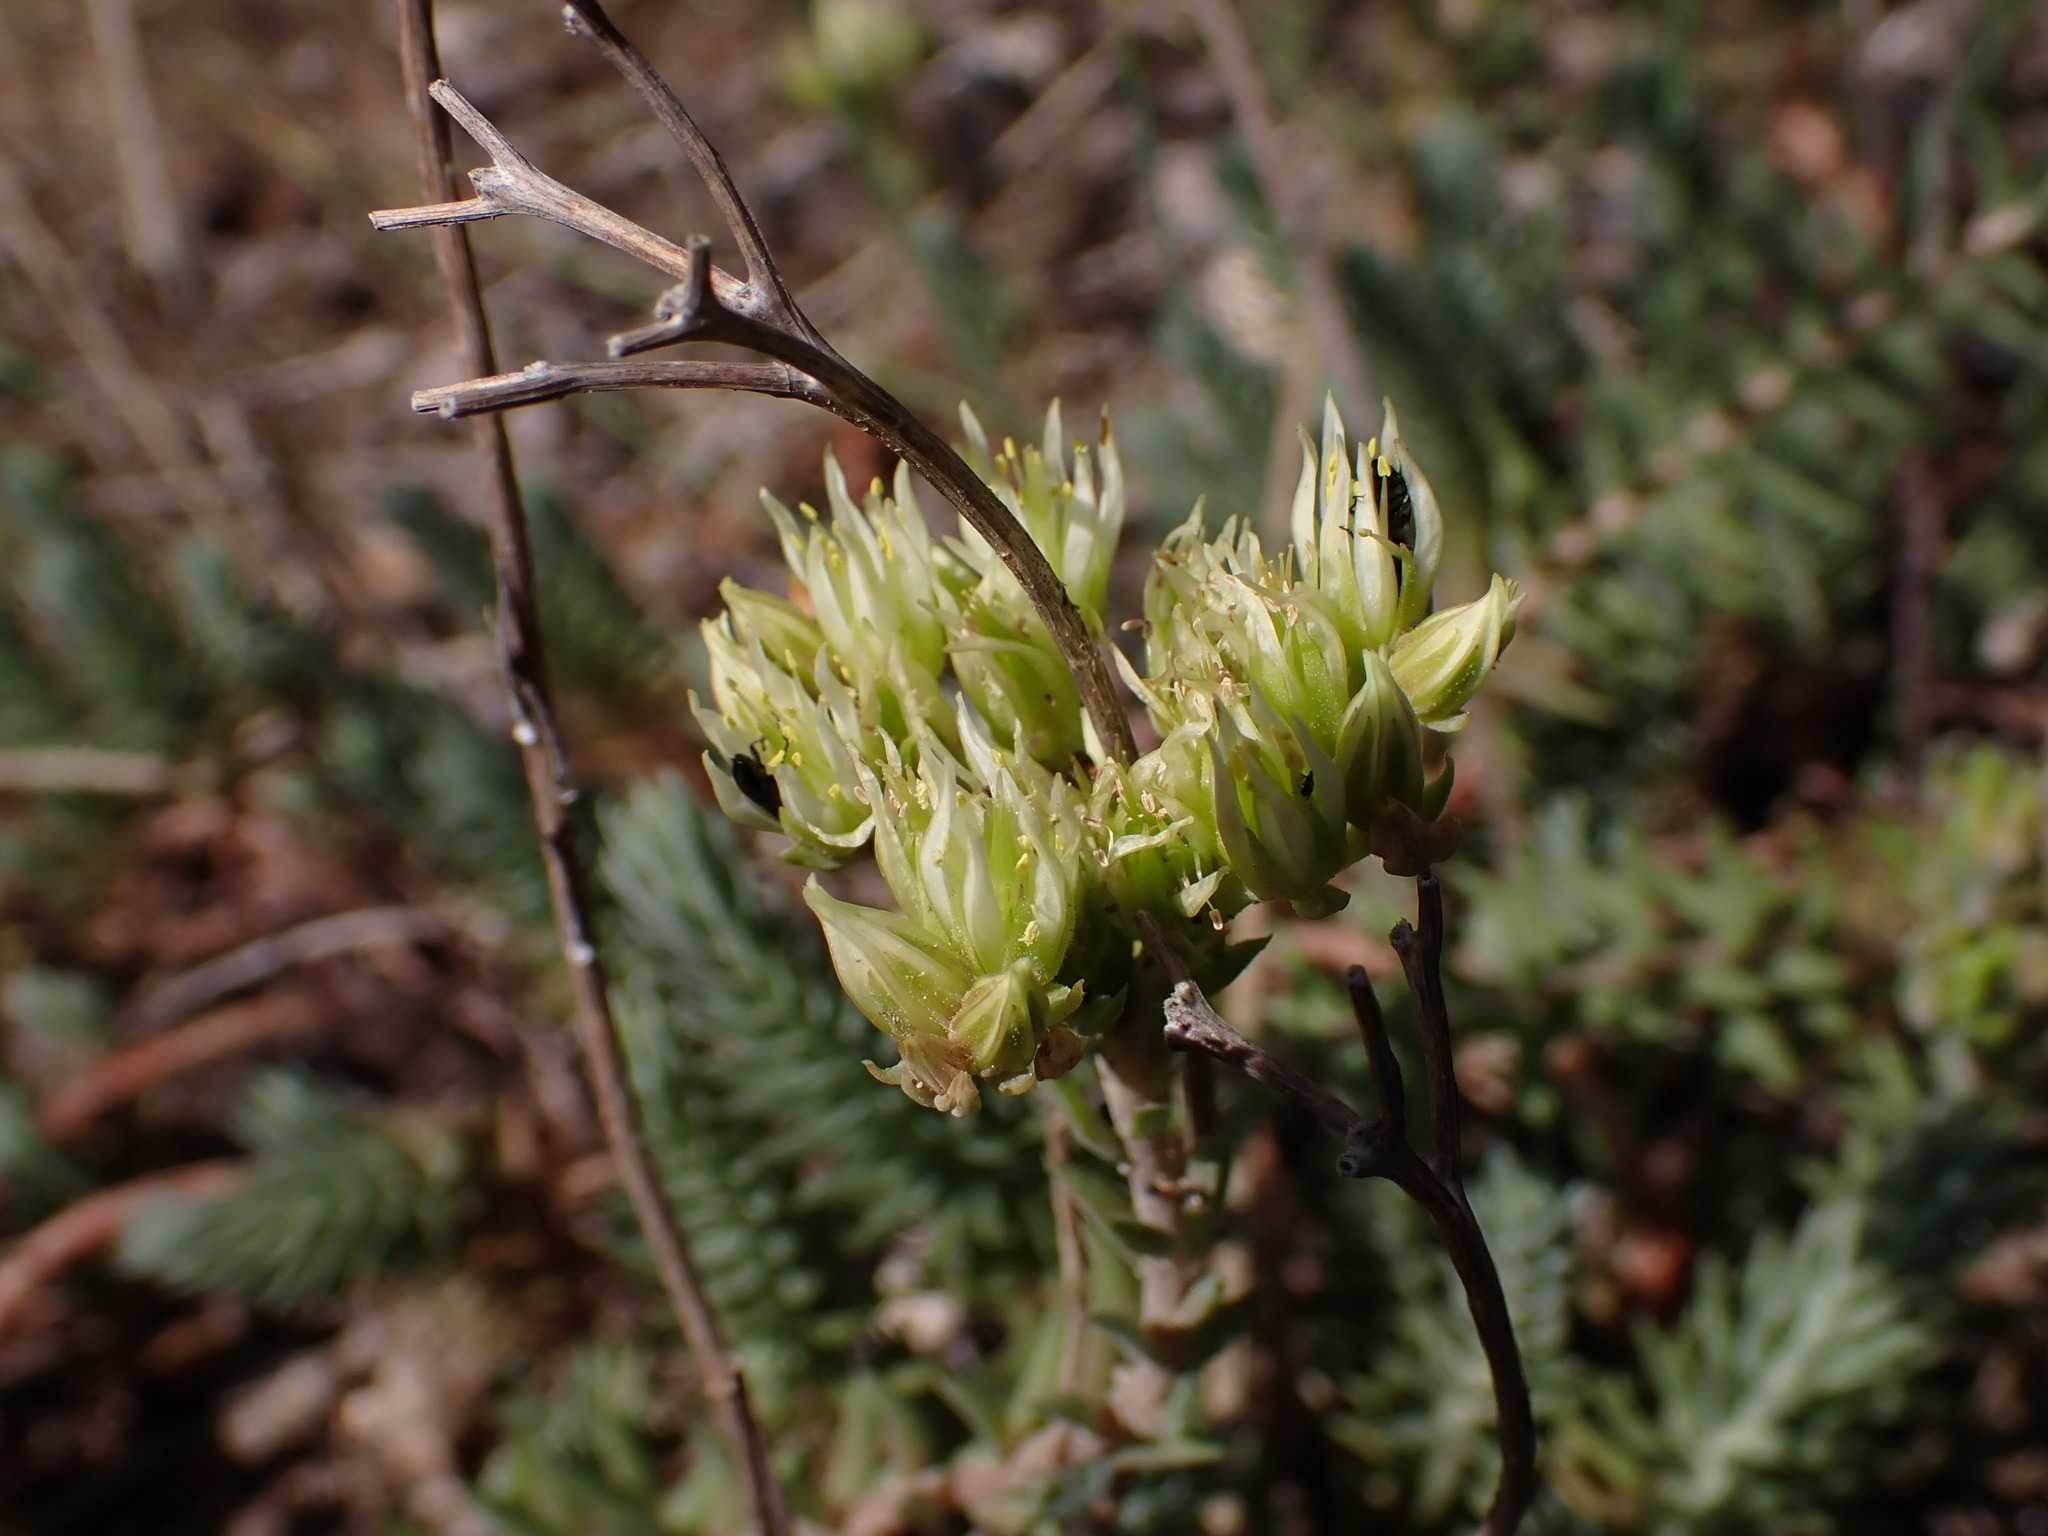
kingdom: Plantae
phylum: Tracheophyta
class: Magnoliopsida
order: Saxifragales
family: Crassulaceae
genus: Petrosedum
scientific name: Petrosedum ochroleucum
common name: European stonecrop
